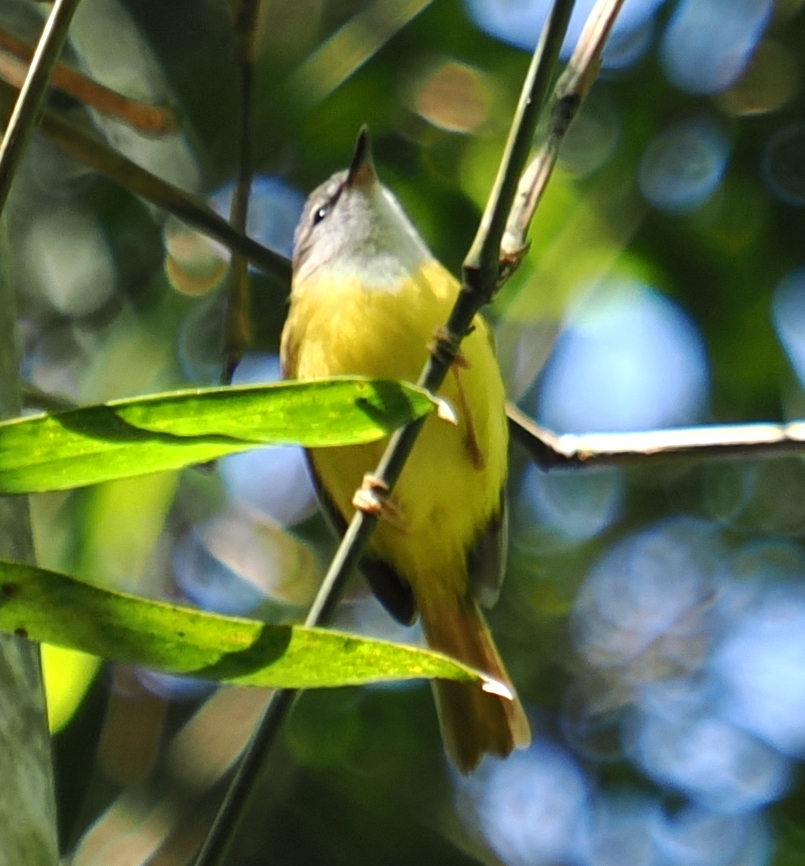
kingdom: Animalia
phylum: Chordata
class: Aves
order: Passeriformes
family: Cettiidae
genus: Abroscopus
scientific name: Abroscopus superciliaris
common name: Yellow-bellied warbler
